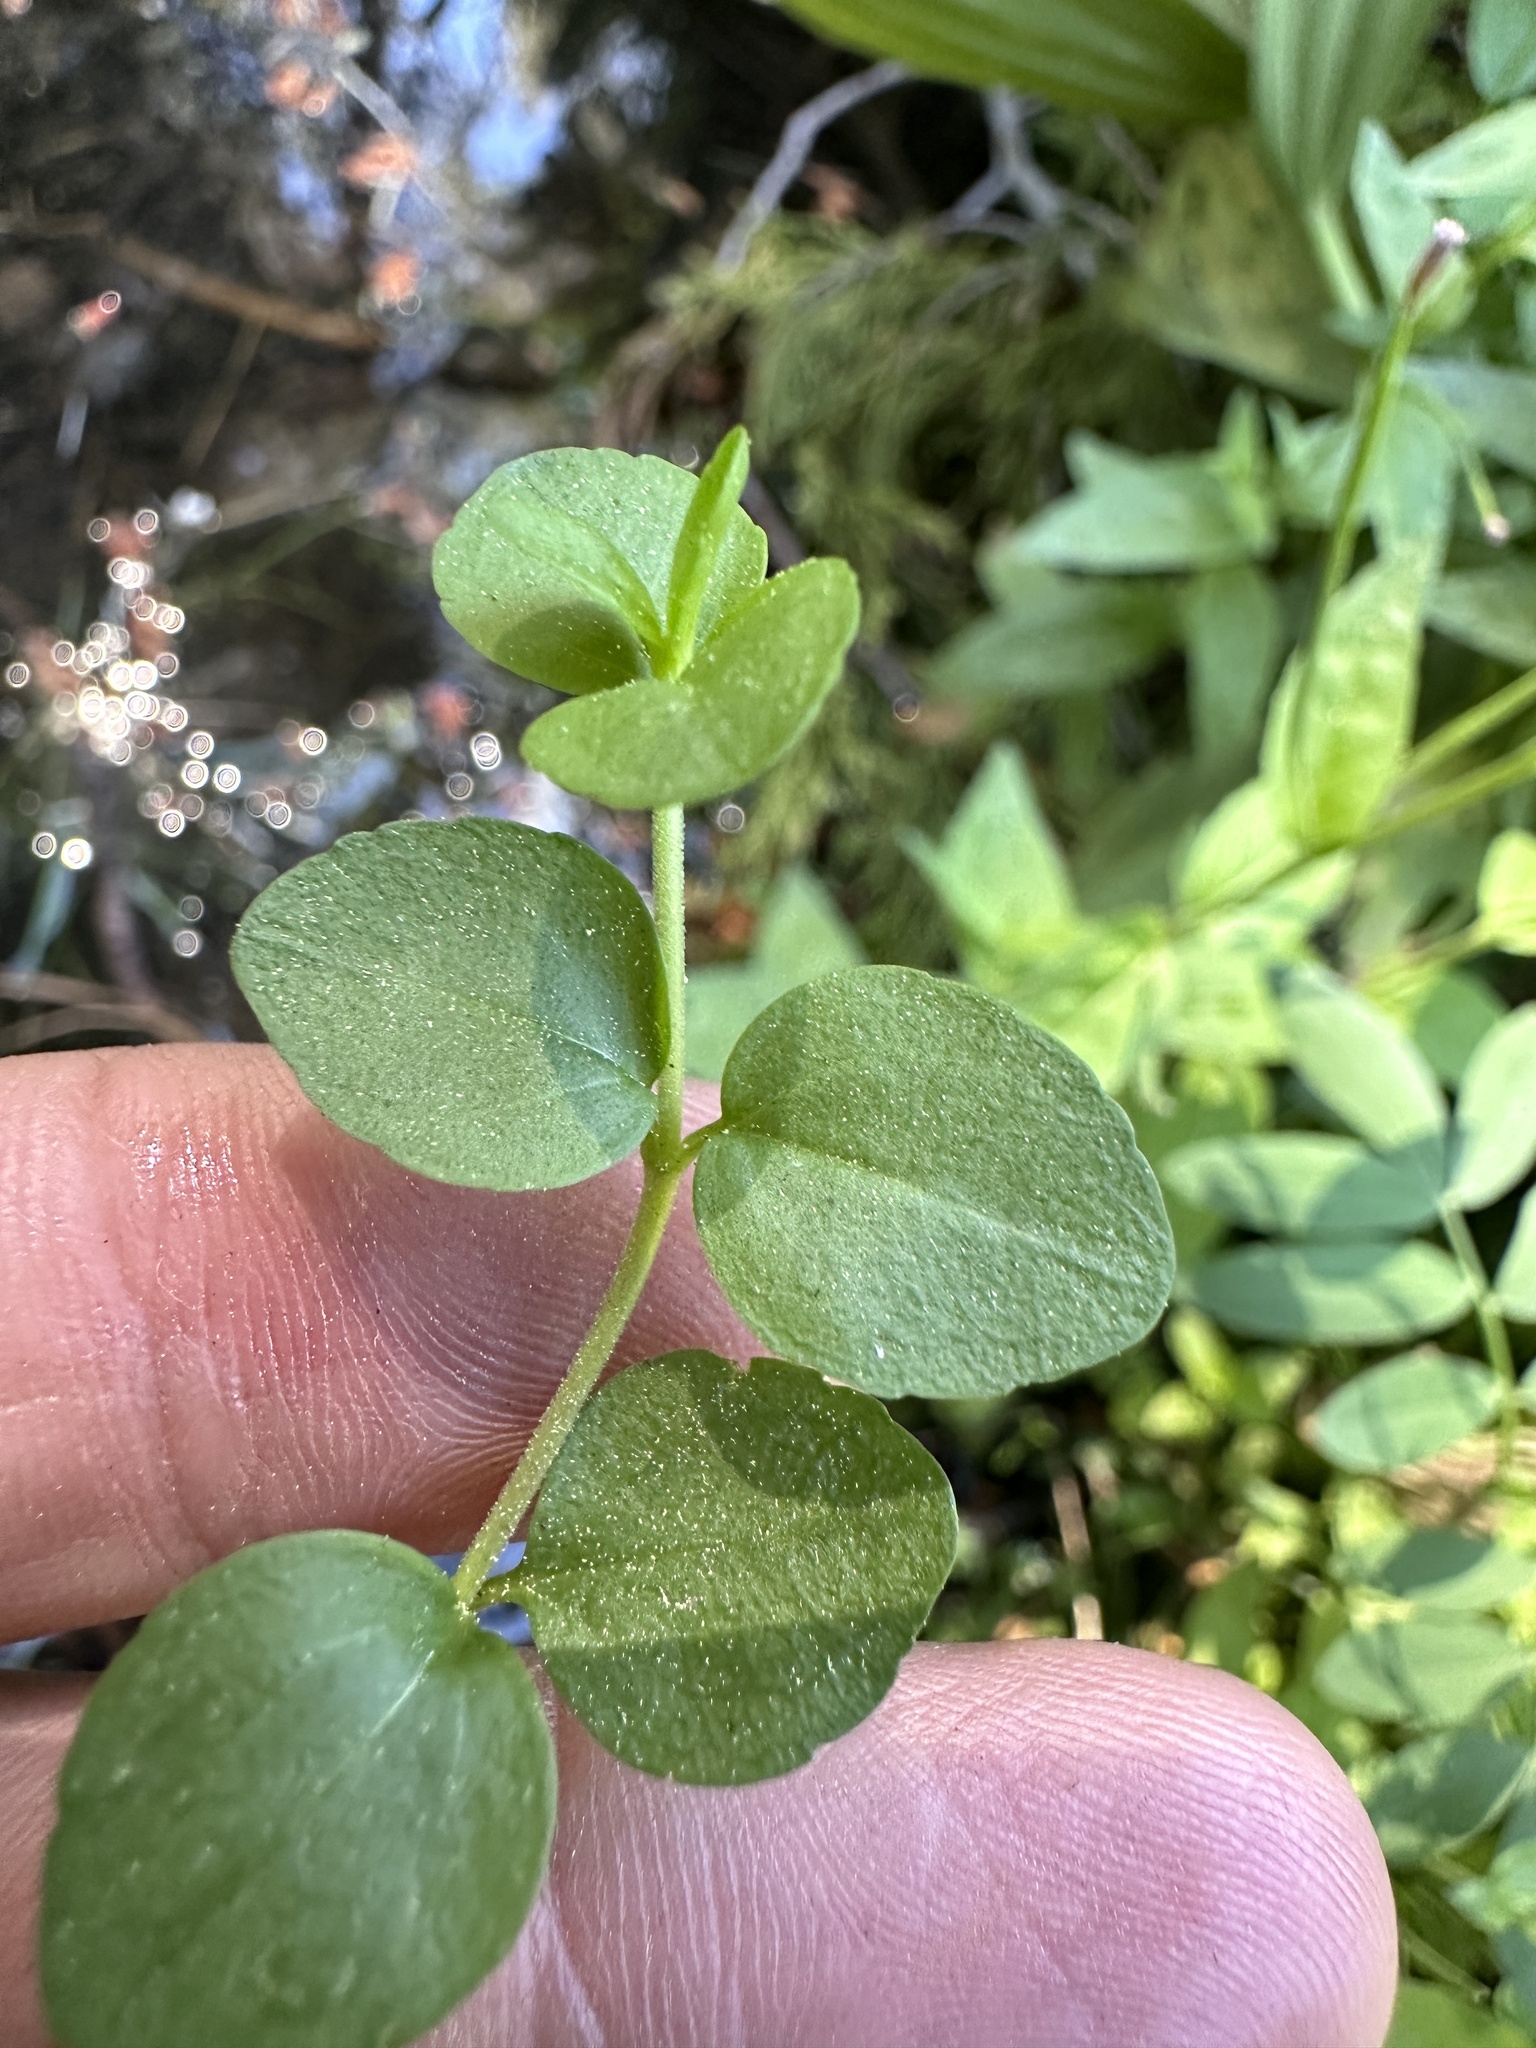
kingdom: Plantae
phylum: Tracheophyta
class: Magnoliopsida
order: Lamiales
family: Plantaginaceae
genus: Veronica
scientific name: Veronica serpyllifolia
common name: Thyme-leaved speedwell
